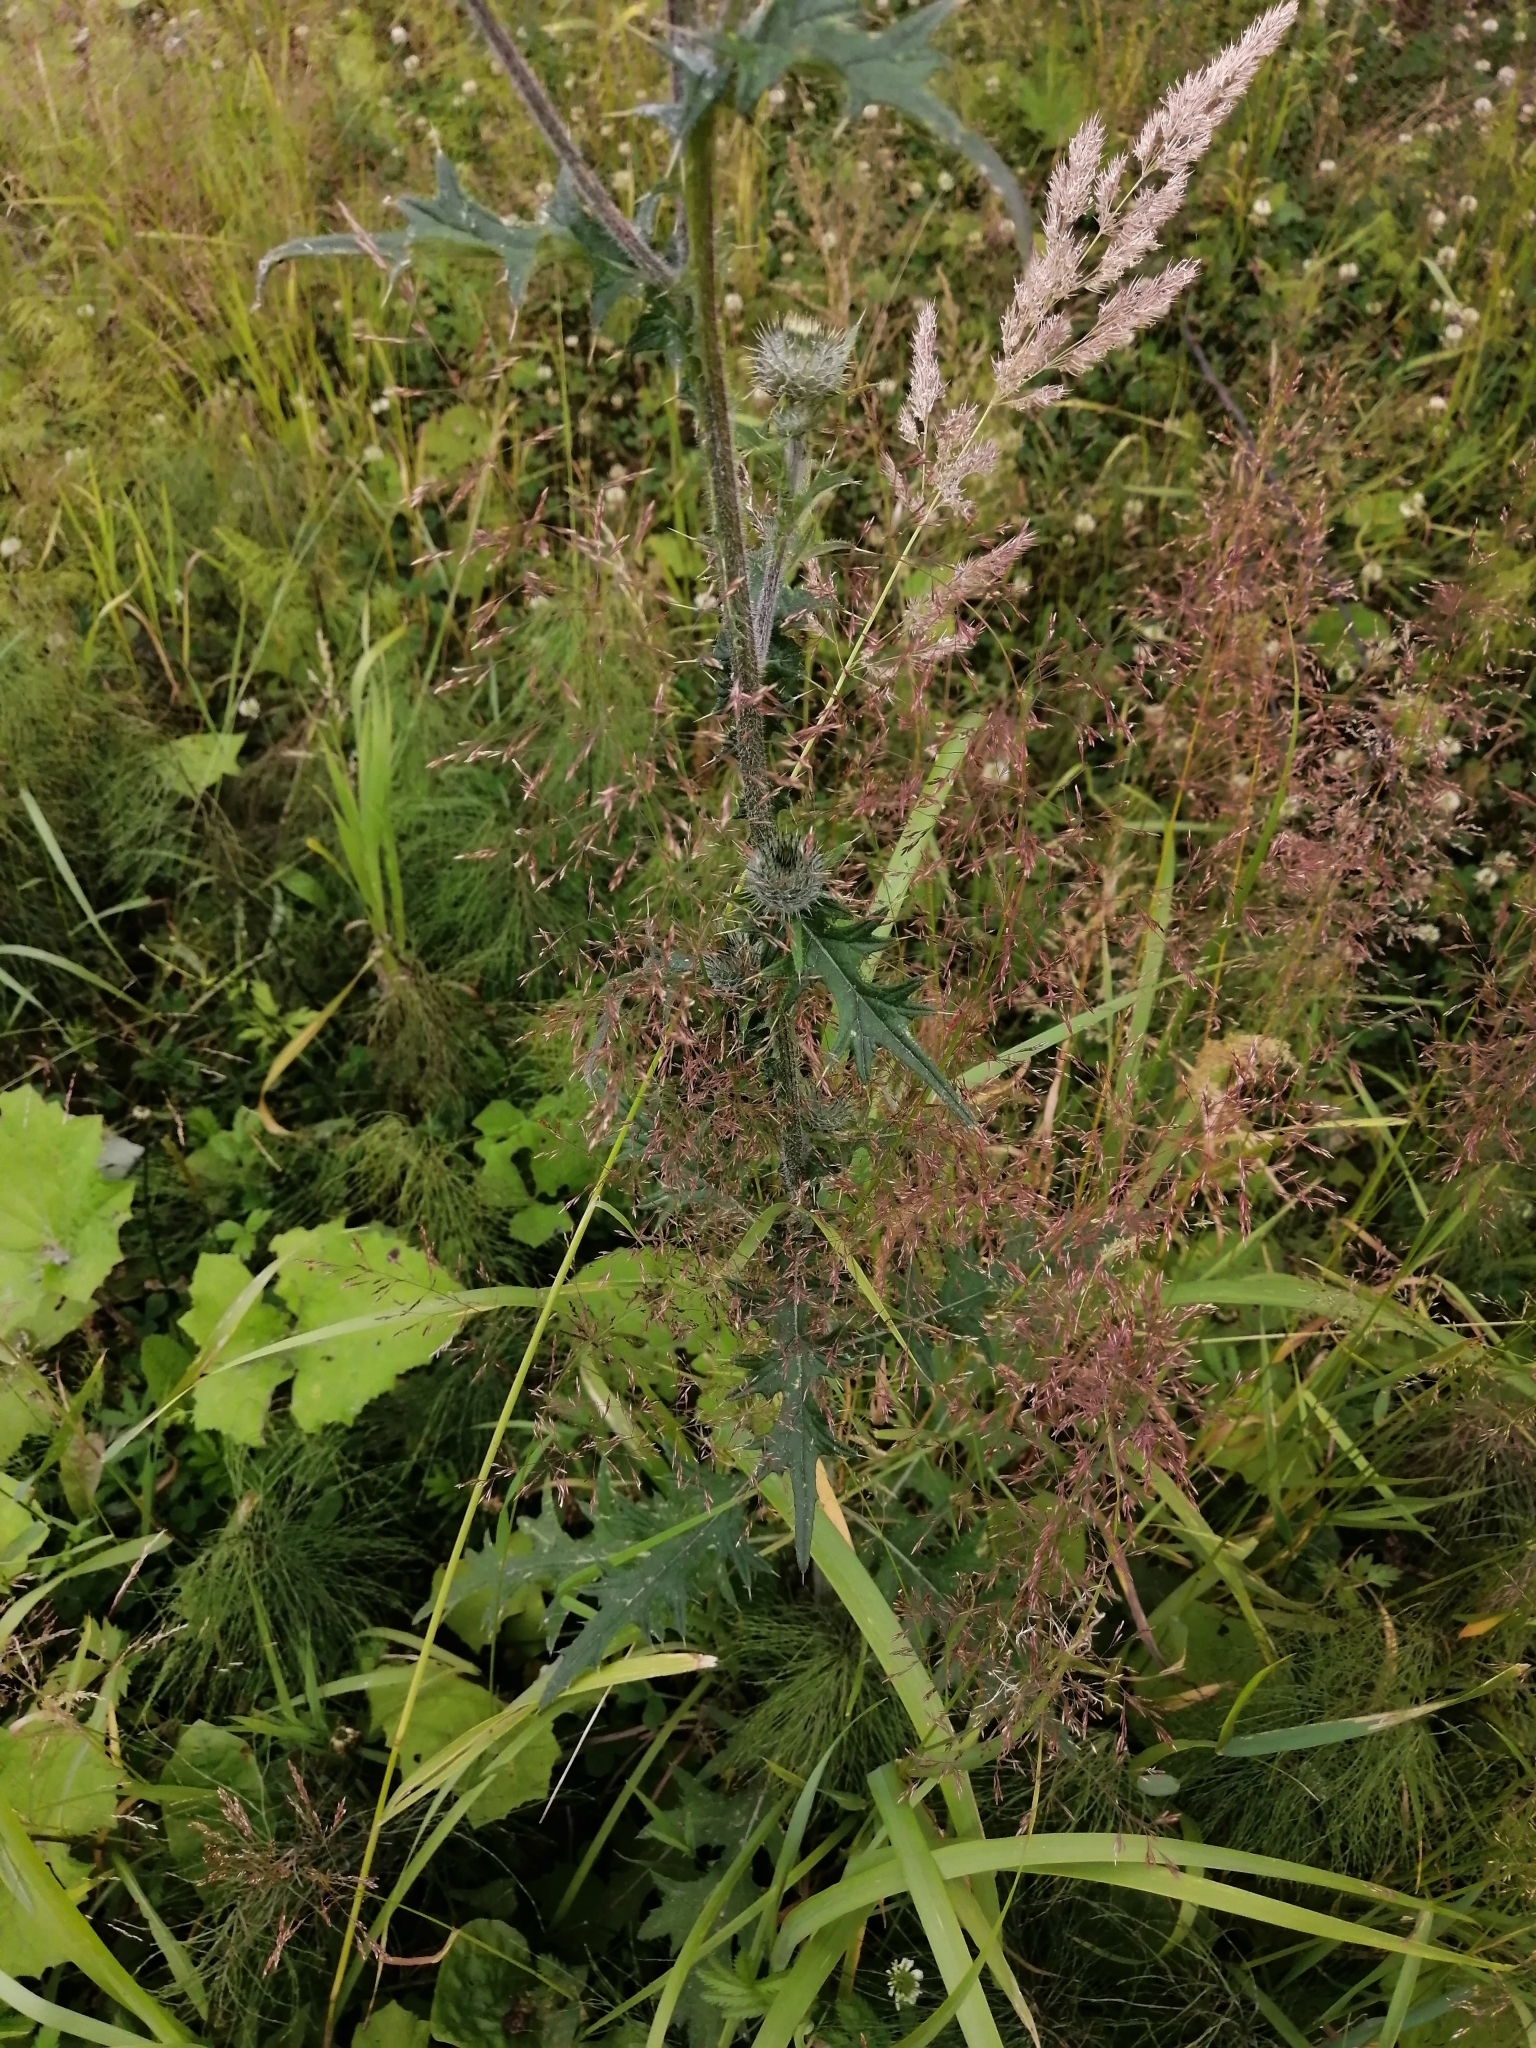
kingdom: Plantae
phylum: Tracheophyta
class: Magnoliopsida
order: Asterales
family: Asteraceae
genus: Cirsium
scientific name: Cirsium vulgare
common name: Bull thistle
